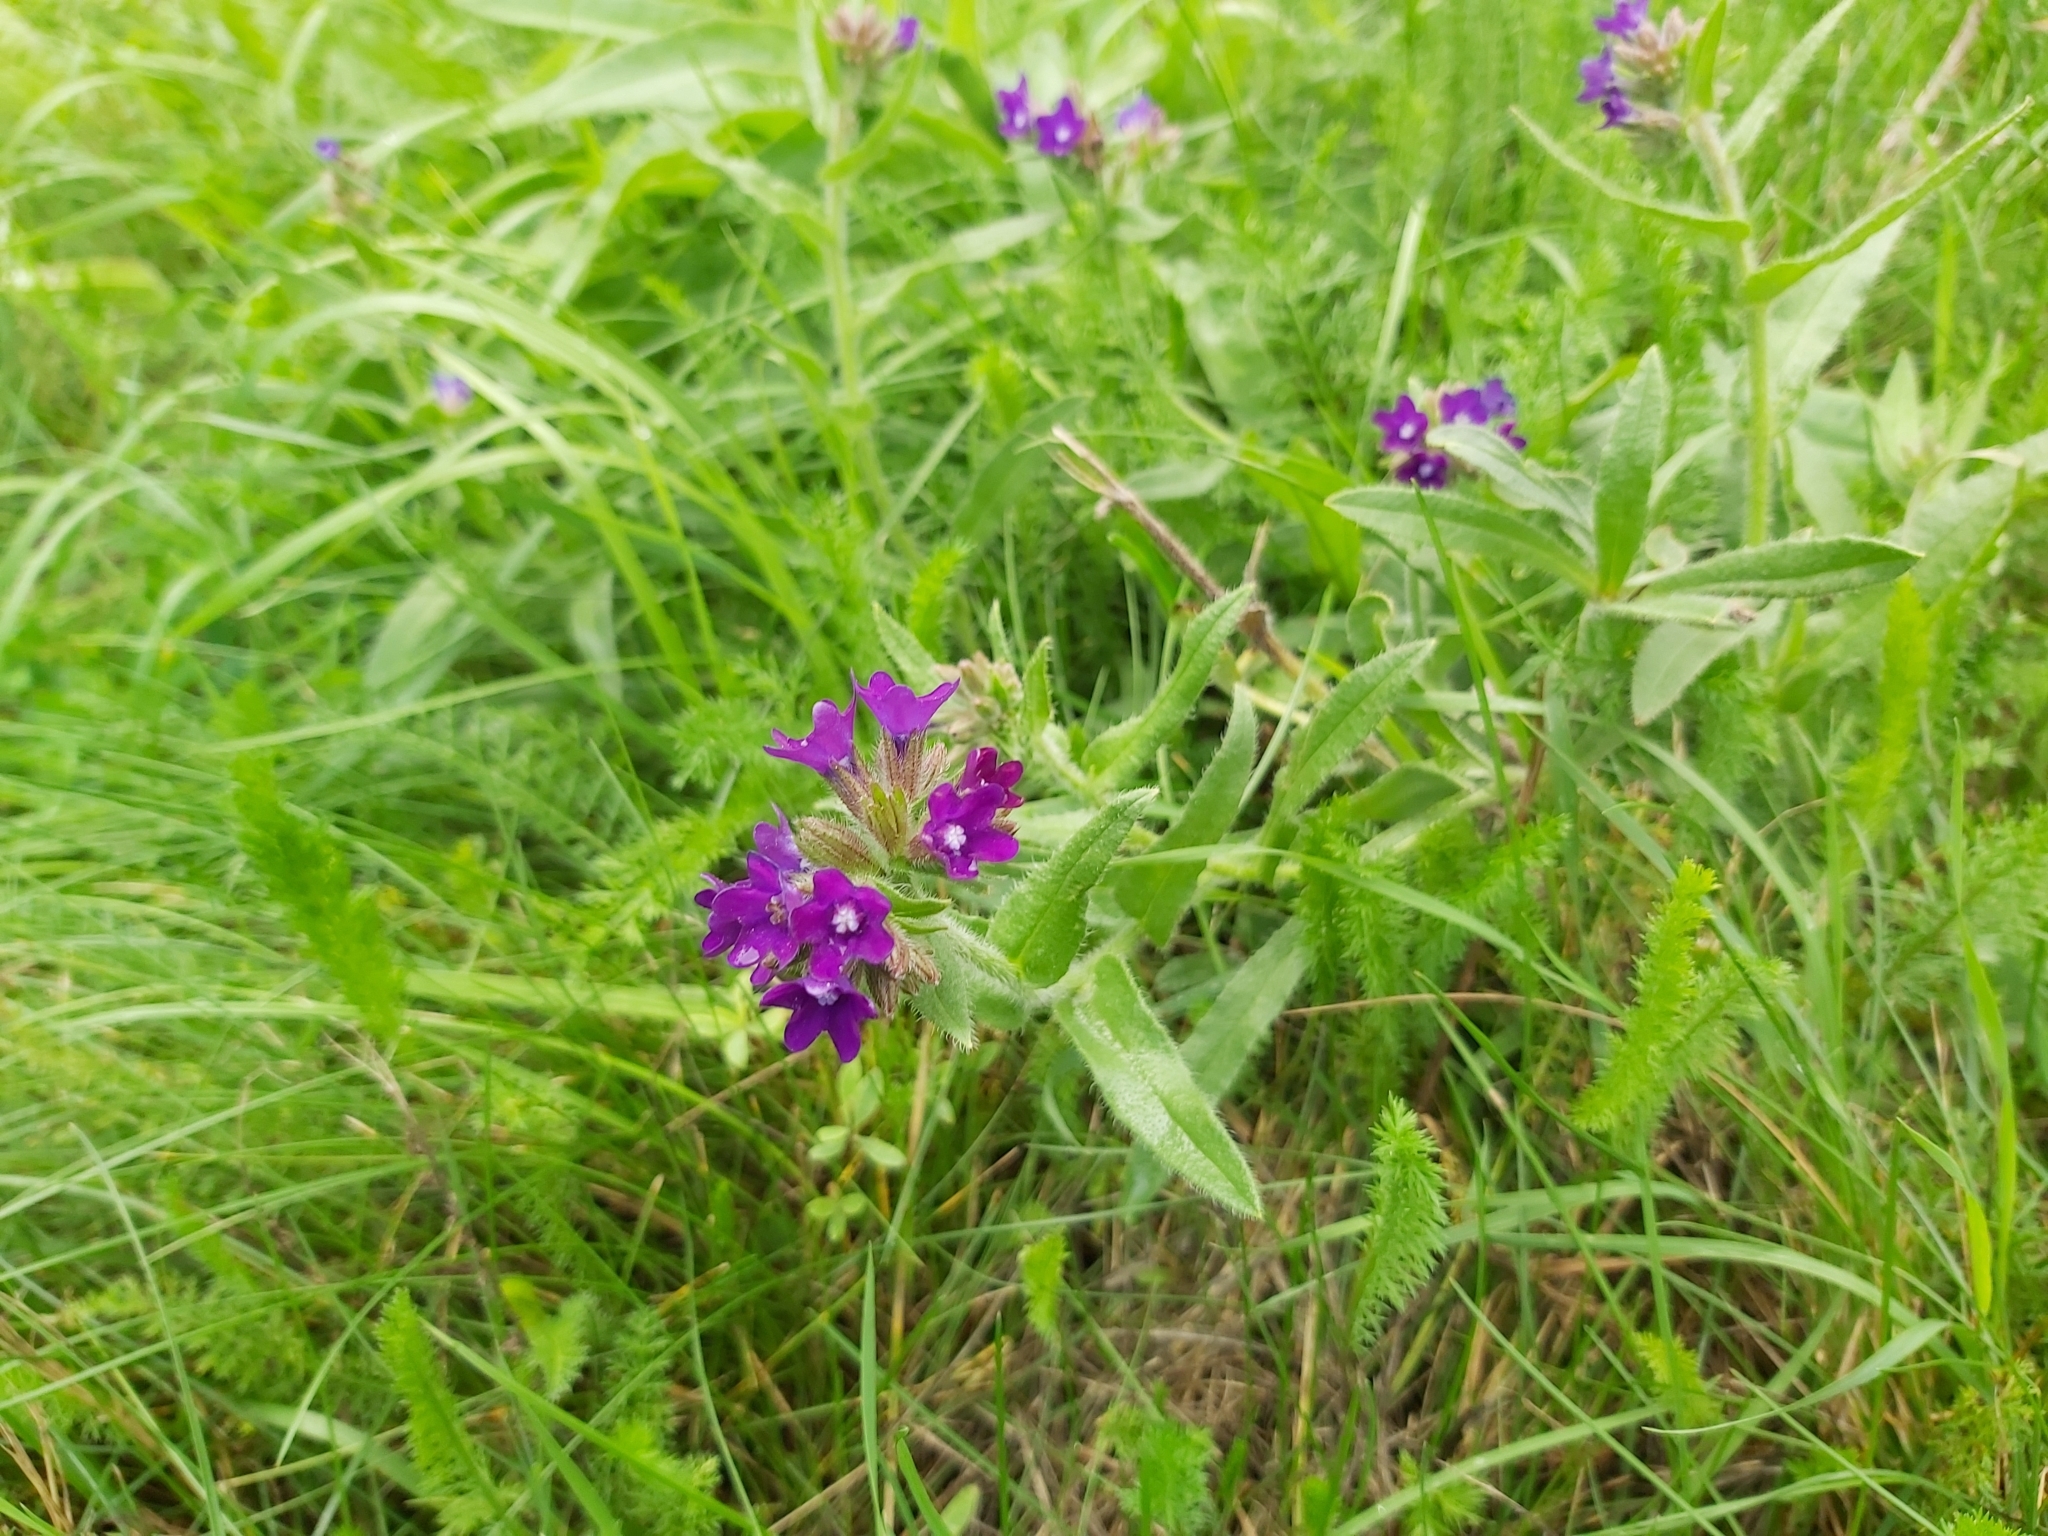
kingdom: Plantae
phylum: Tracheophyta
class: Magnoliopsida
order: Boraginales
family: Boraginaceae
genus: Anchusa
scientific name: Anchusa officinalis
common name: Alkanet
